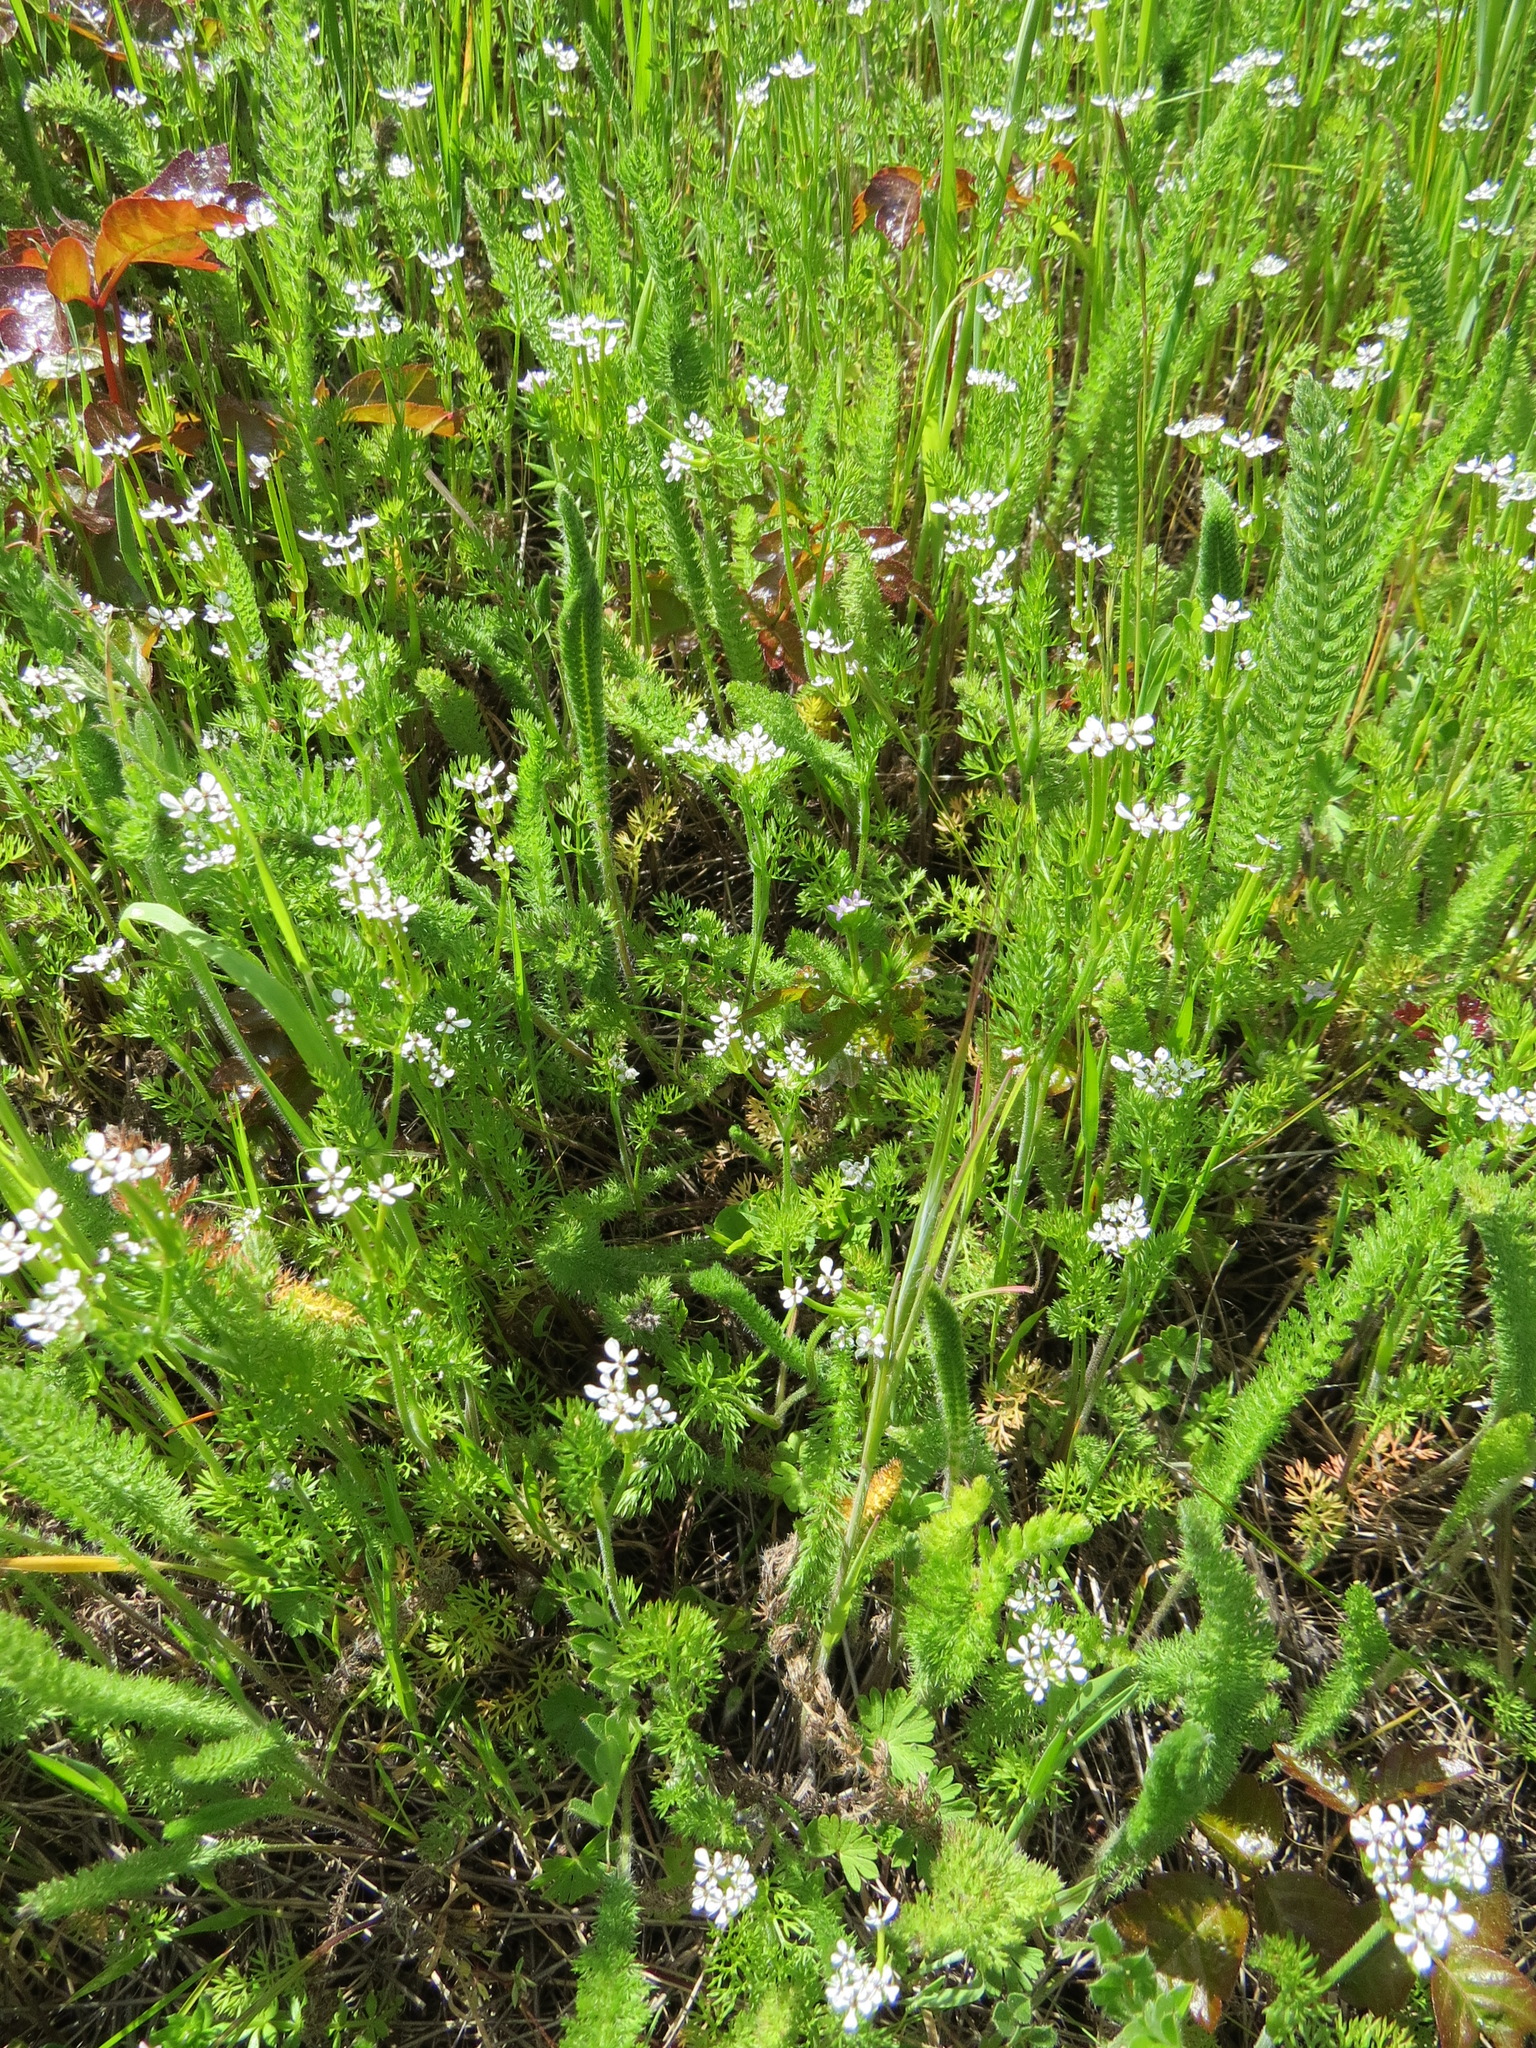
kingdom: Plantae
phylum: Tracheophyta
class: Magnoliopsida
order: Apiales
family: Apiaceae
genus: Scandix
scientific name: Scandix pecten-veneris
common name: Shepherd's-needle
